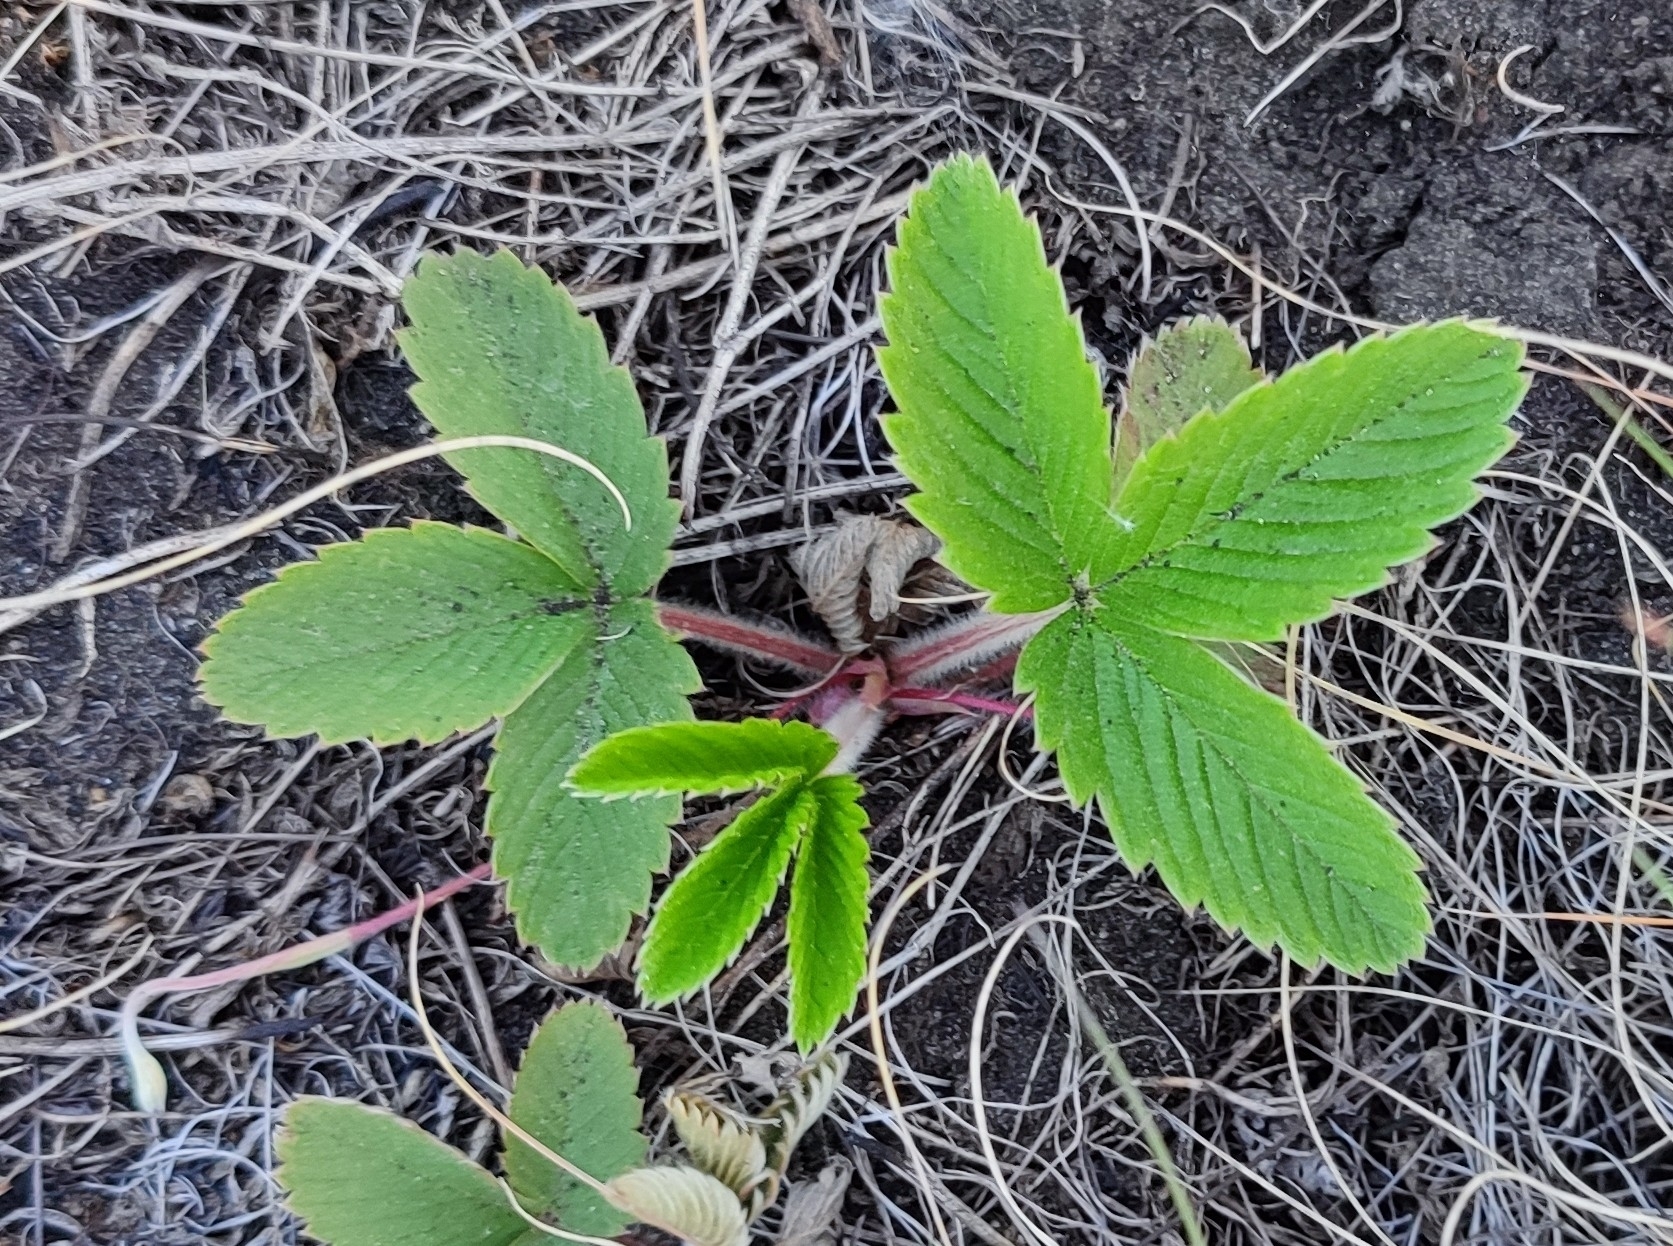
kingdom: Plantae
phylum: Tracheophyta
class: Magnoliopsida
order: Rosales
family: Rosaceae
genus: Fragaria
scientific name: Fragaria viridis
